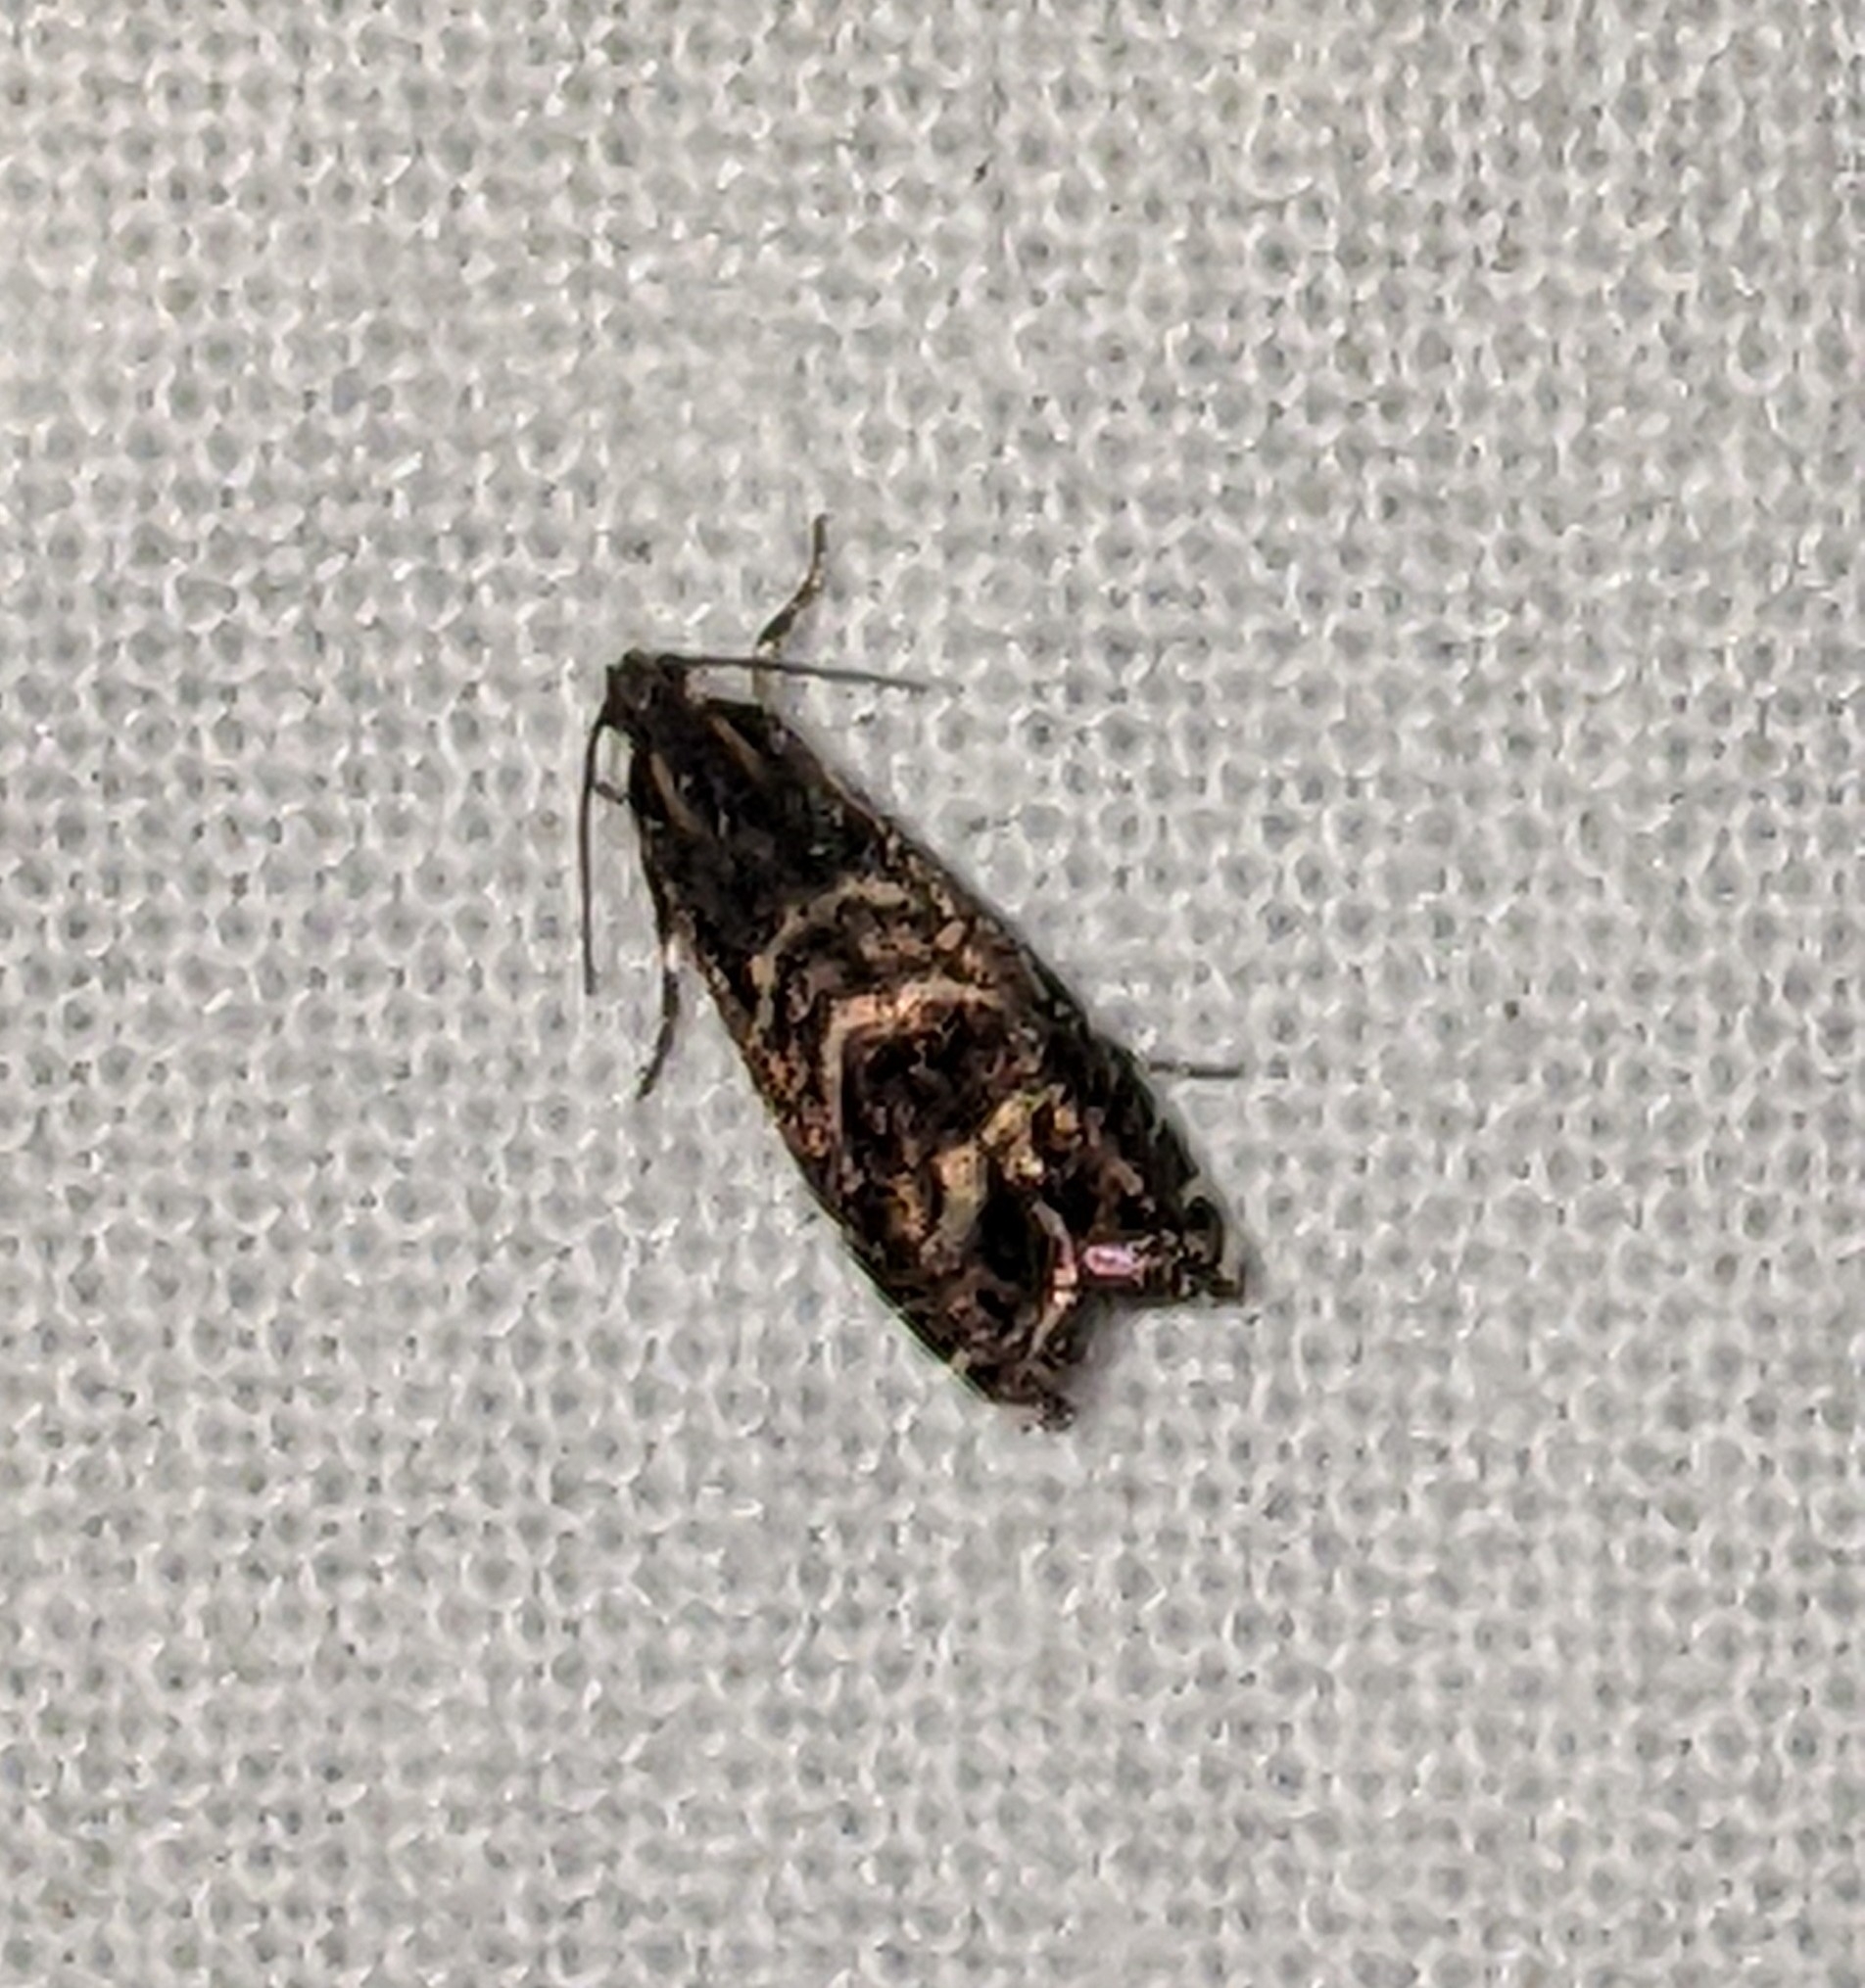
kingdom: Animalia
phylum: Arthropoda
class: Insecta
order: Lepidoptera
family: Tortricidae
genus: Thaumatographa
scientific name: Thaumatographa youngiella
